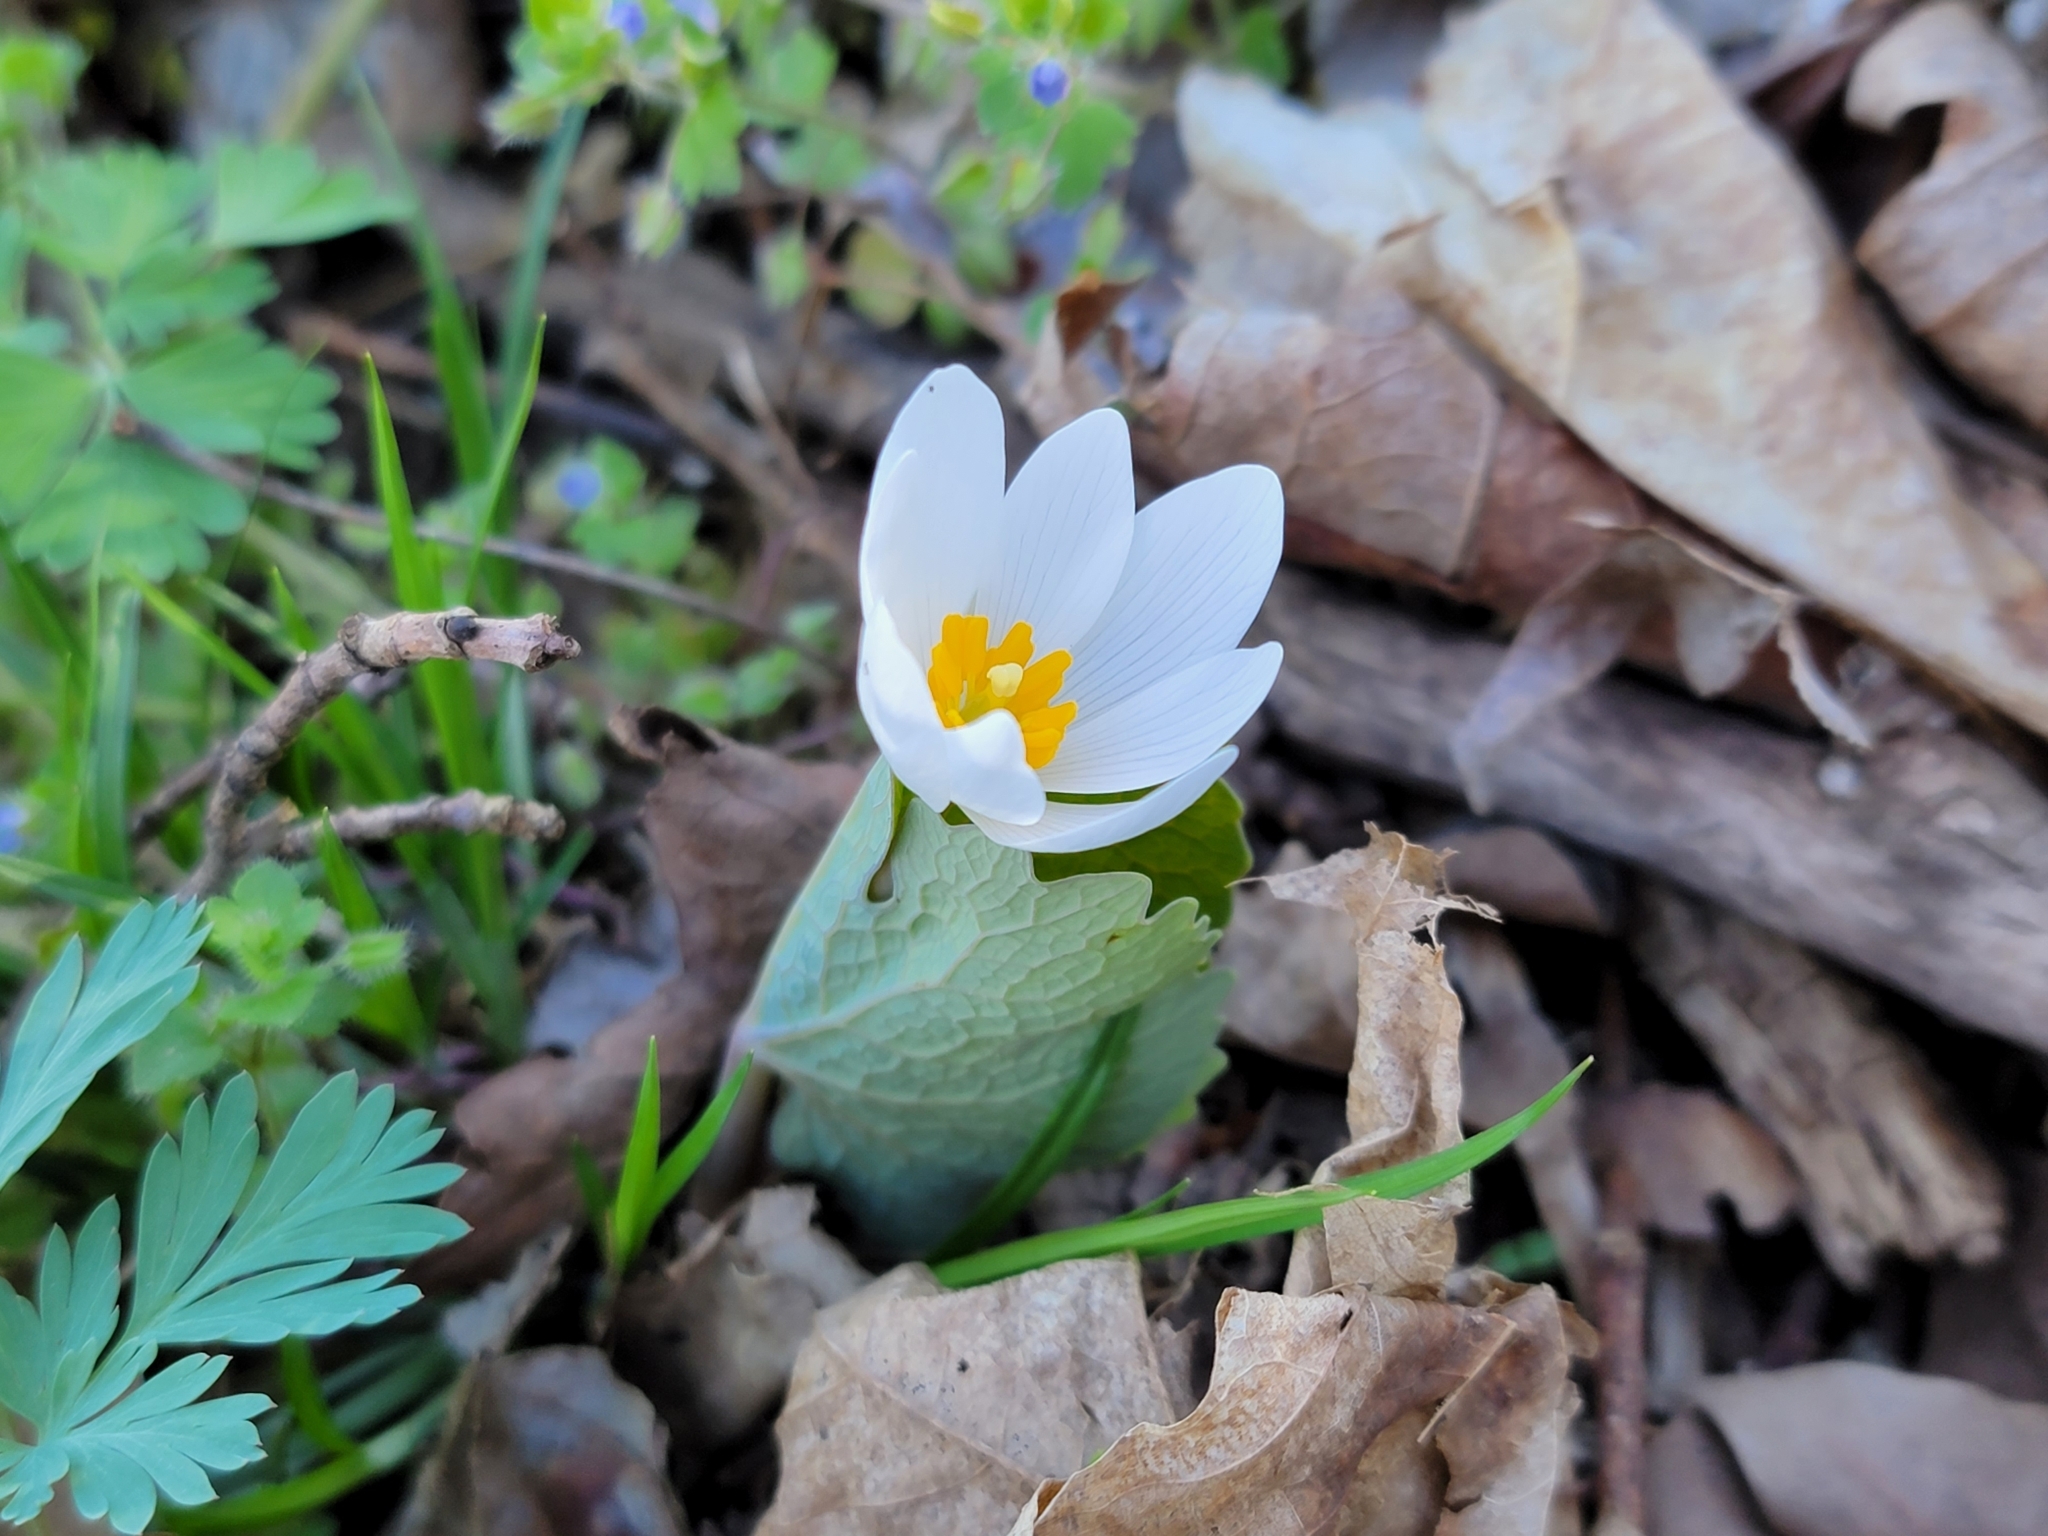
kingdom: Plantae
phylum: Tracheophyta
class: Magnoliopsida
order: Ranunculales
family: Papaveraceae
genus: Sanguinaria
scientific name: Sanguinaria canadensis
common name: Bloodroot
